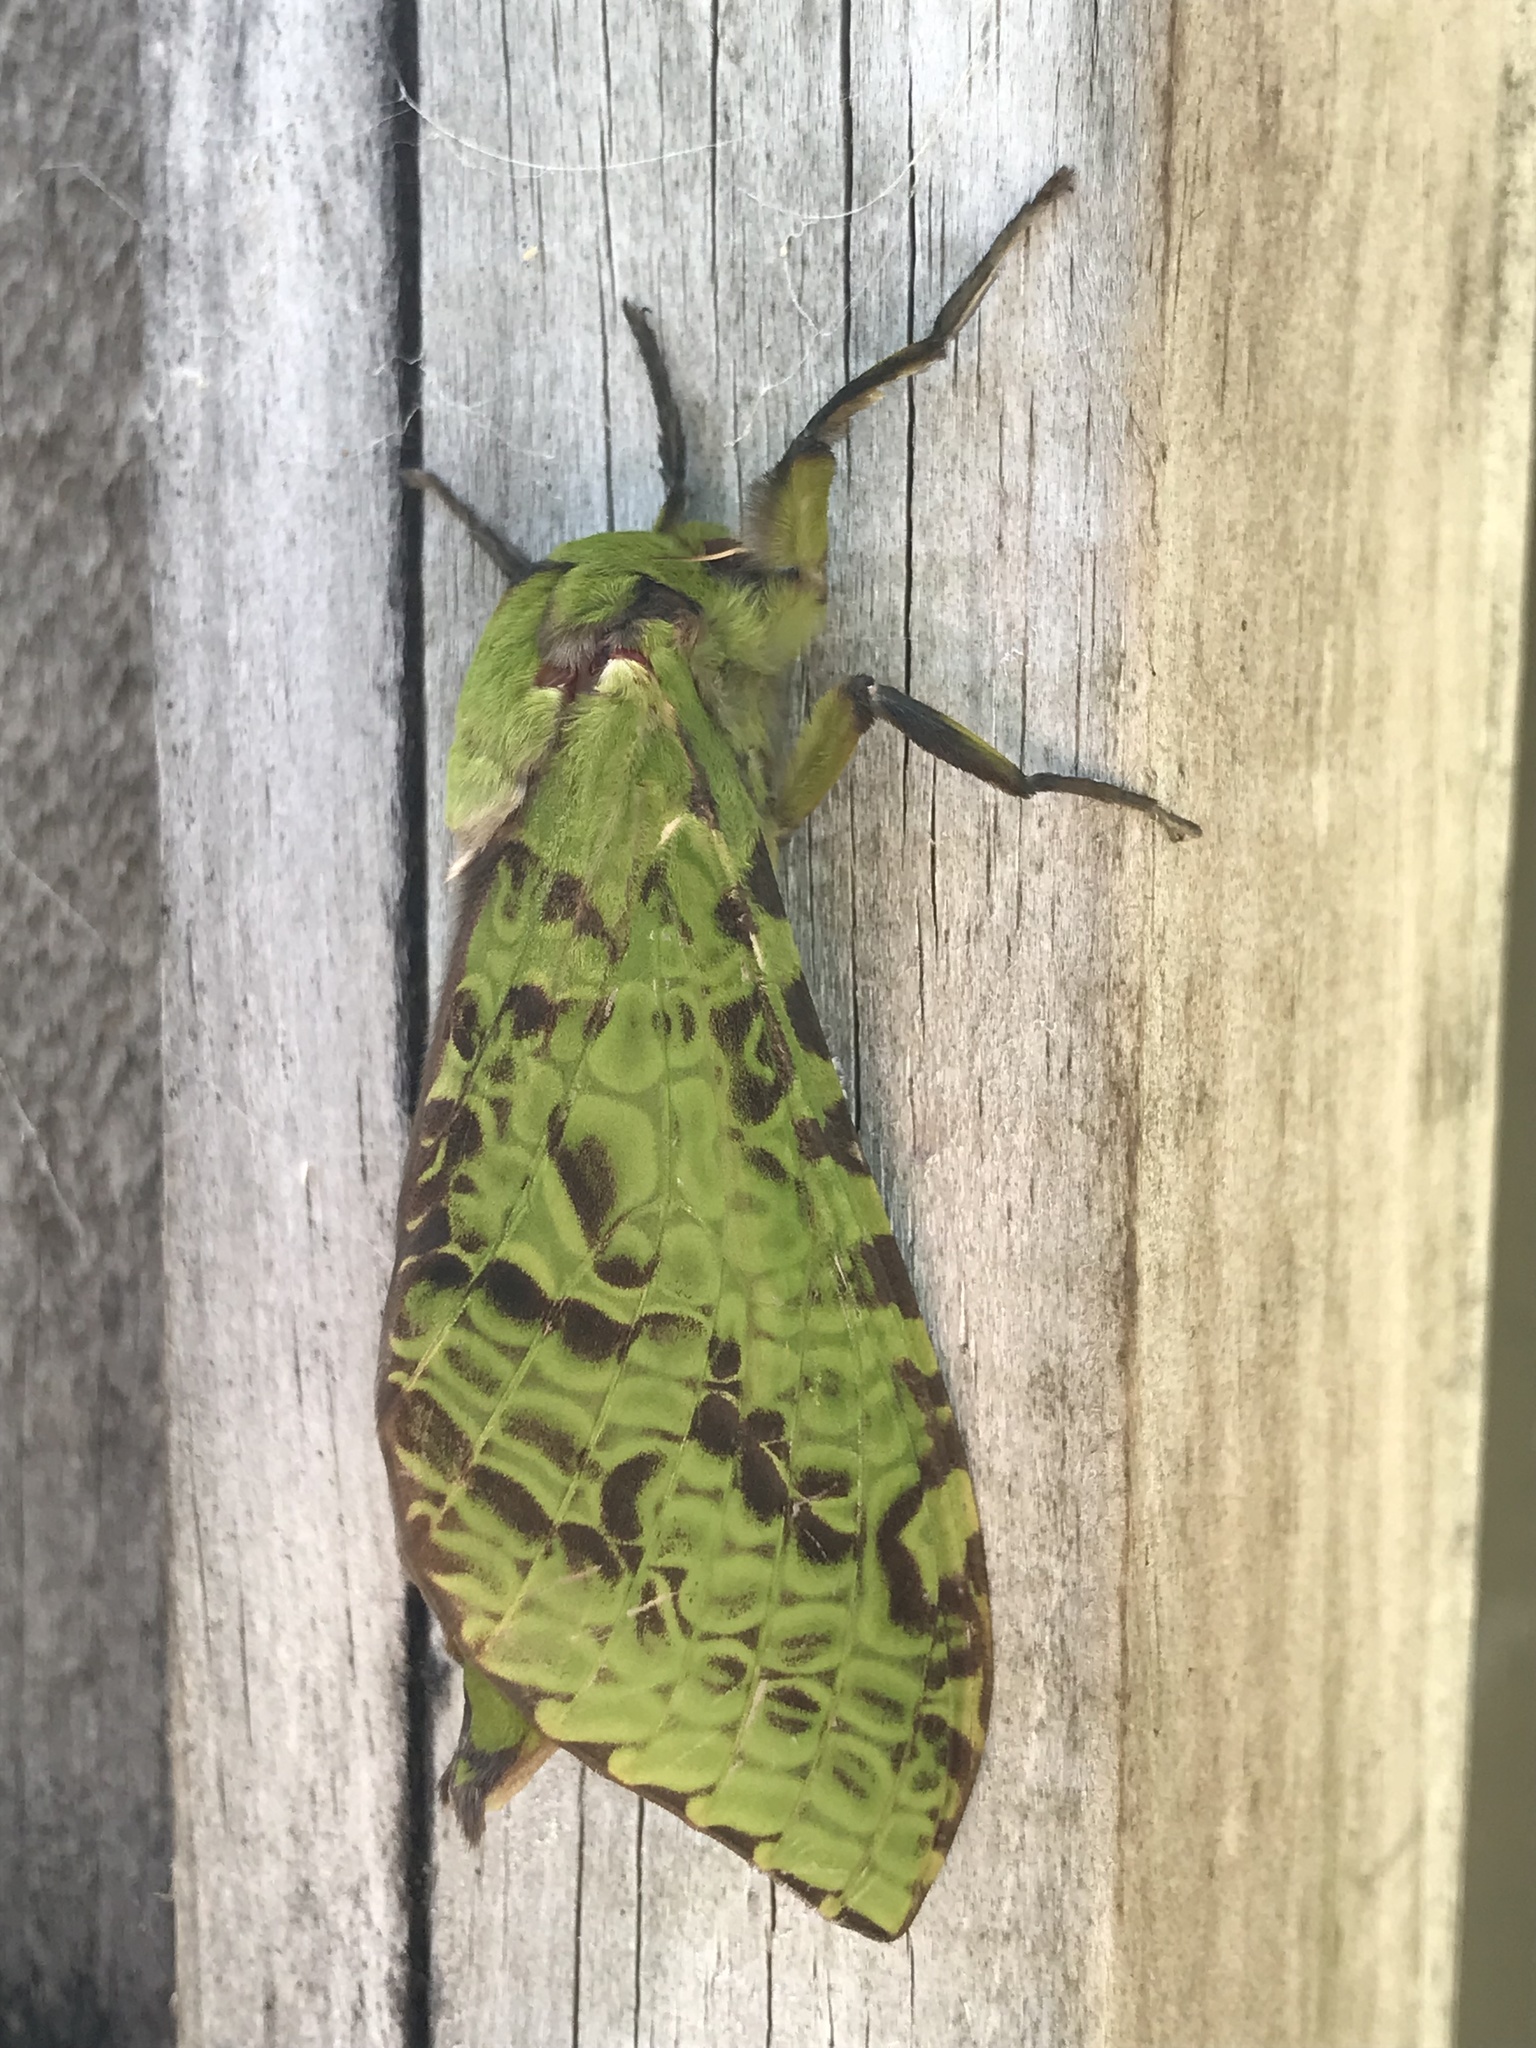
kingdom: Animalia
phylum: Arthropoda
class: Insecta
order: Lepidoptera
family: Hepialidae
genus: Aenetus
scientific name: Aenetus virescens
